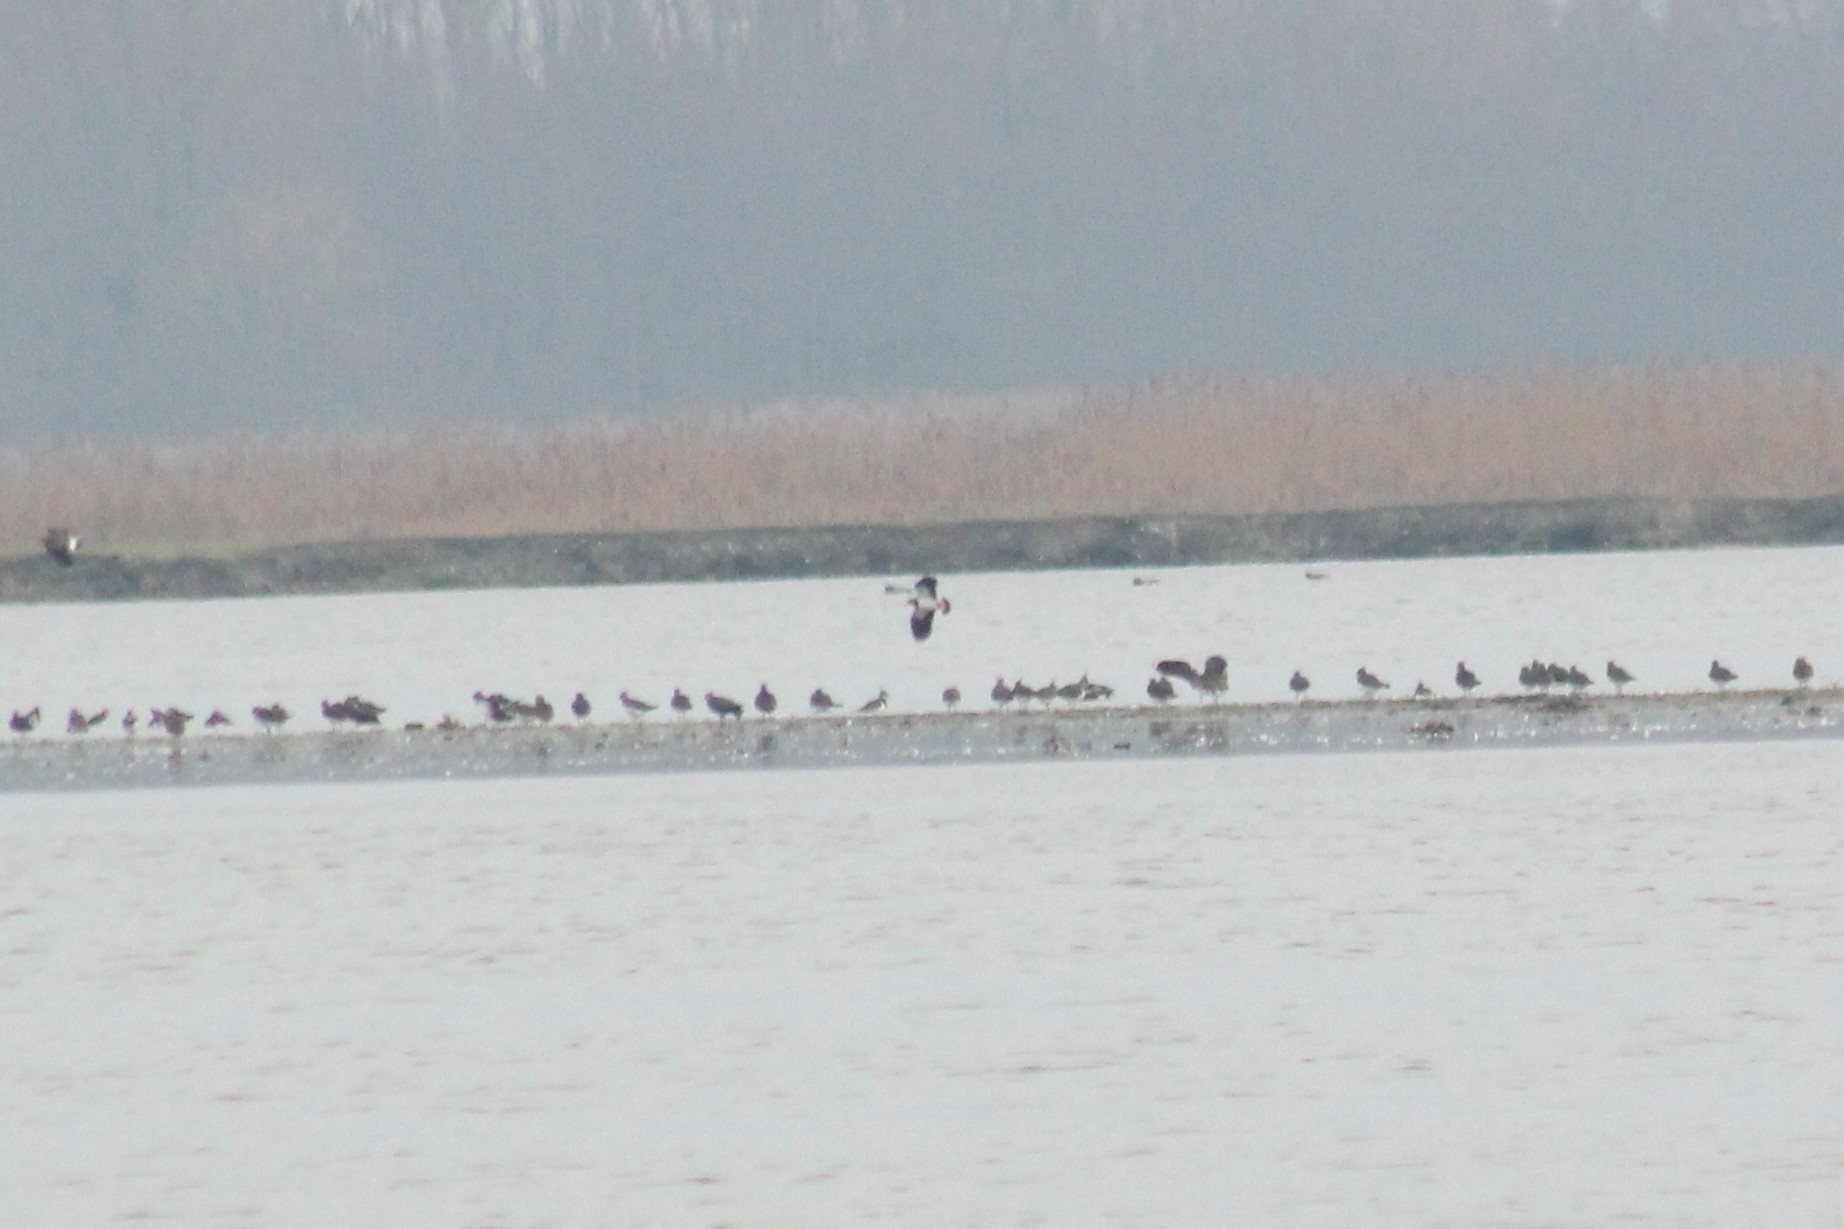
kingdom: Animalia
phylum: Chordata
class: Aves
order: Charadriiformes
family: Charadriidae
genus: Vanellus
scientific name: Vanellus vanellus
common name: Northern lapwing
